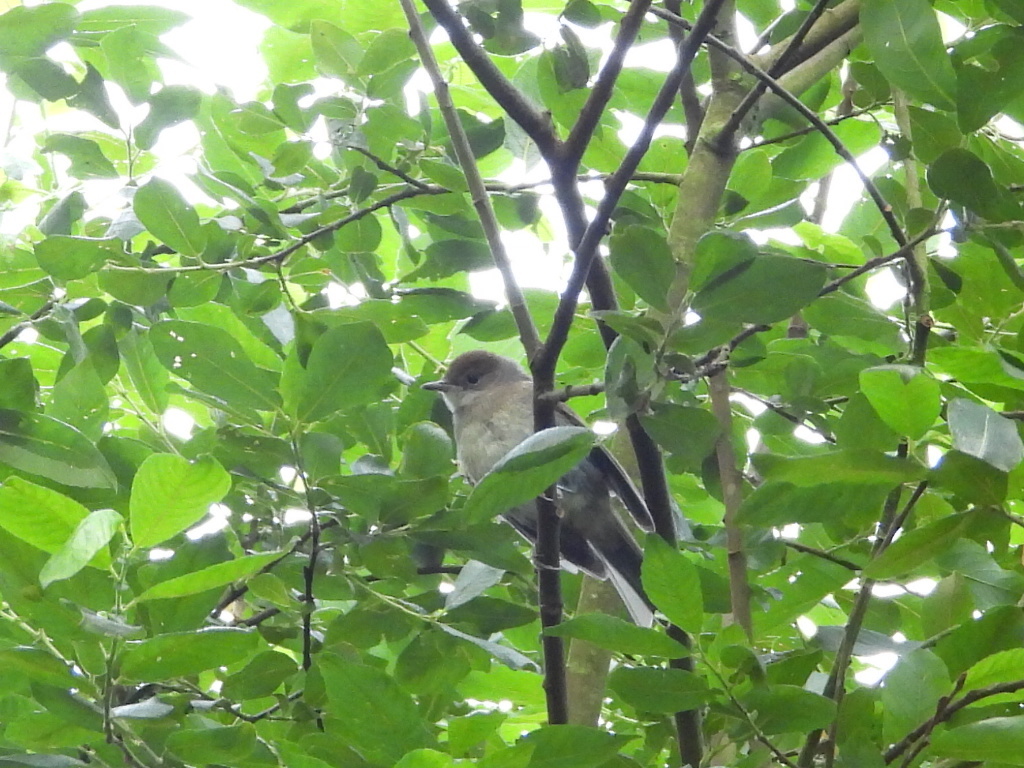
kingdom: Animalia
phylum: Chordata
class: Aves
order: Passeriformes
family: Sylviidae
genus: Sylvia
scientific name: Sylvia atricapilla
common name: Eurasian blackcap
